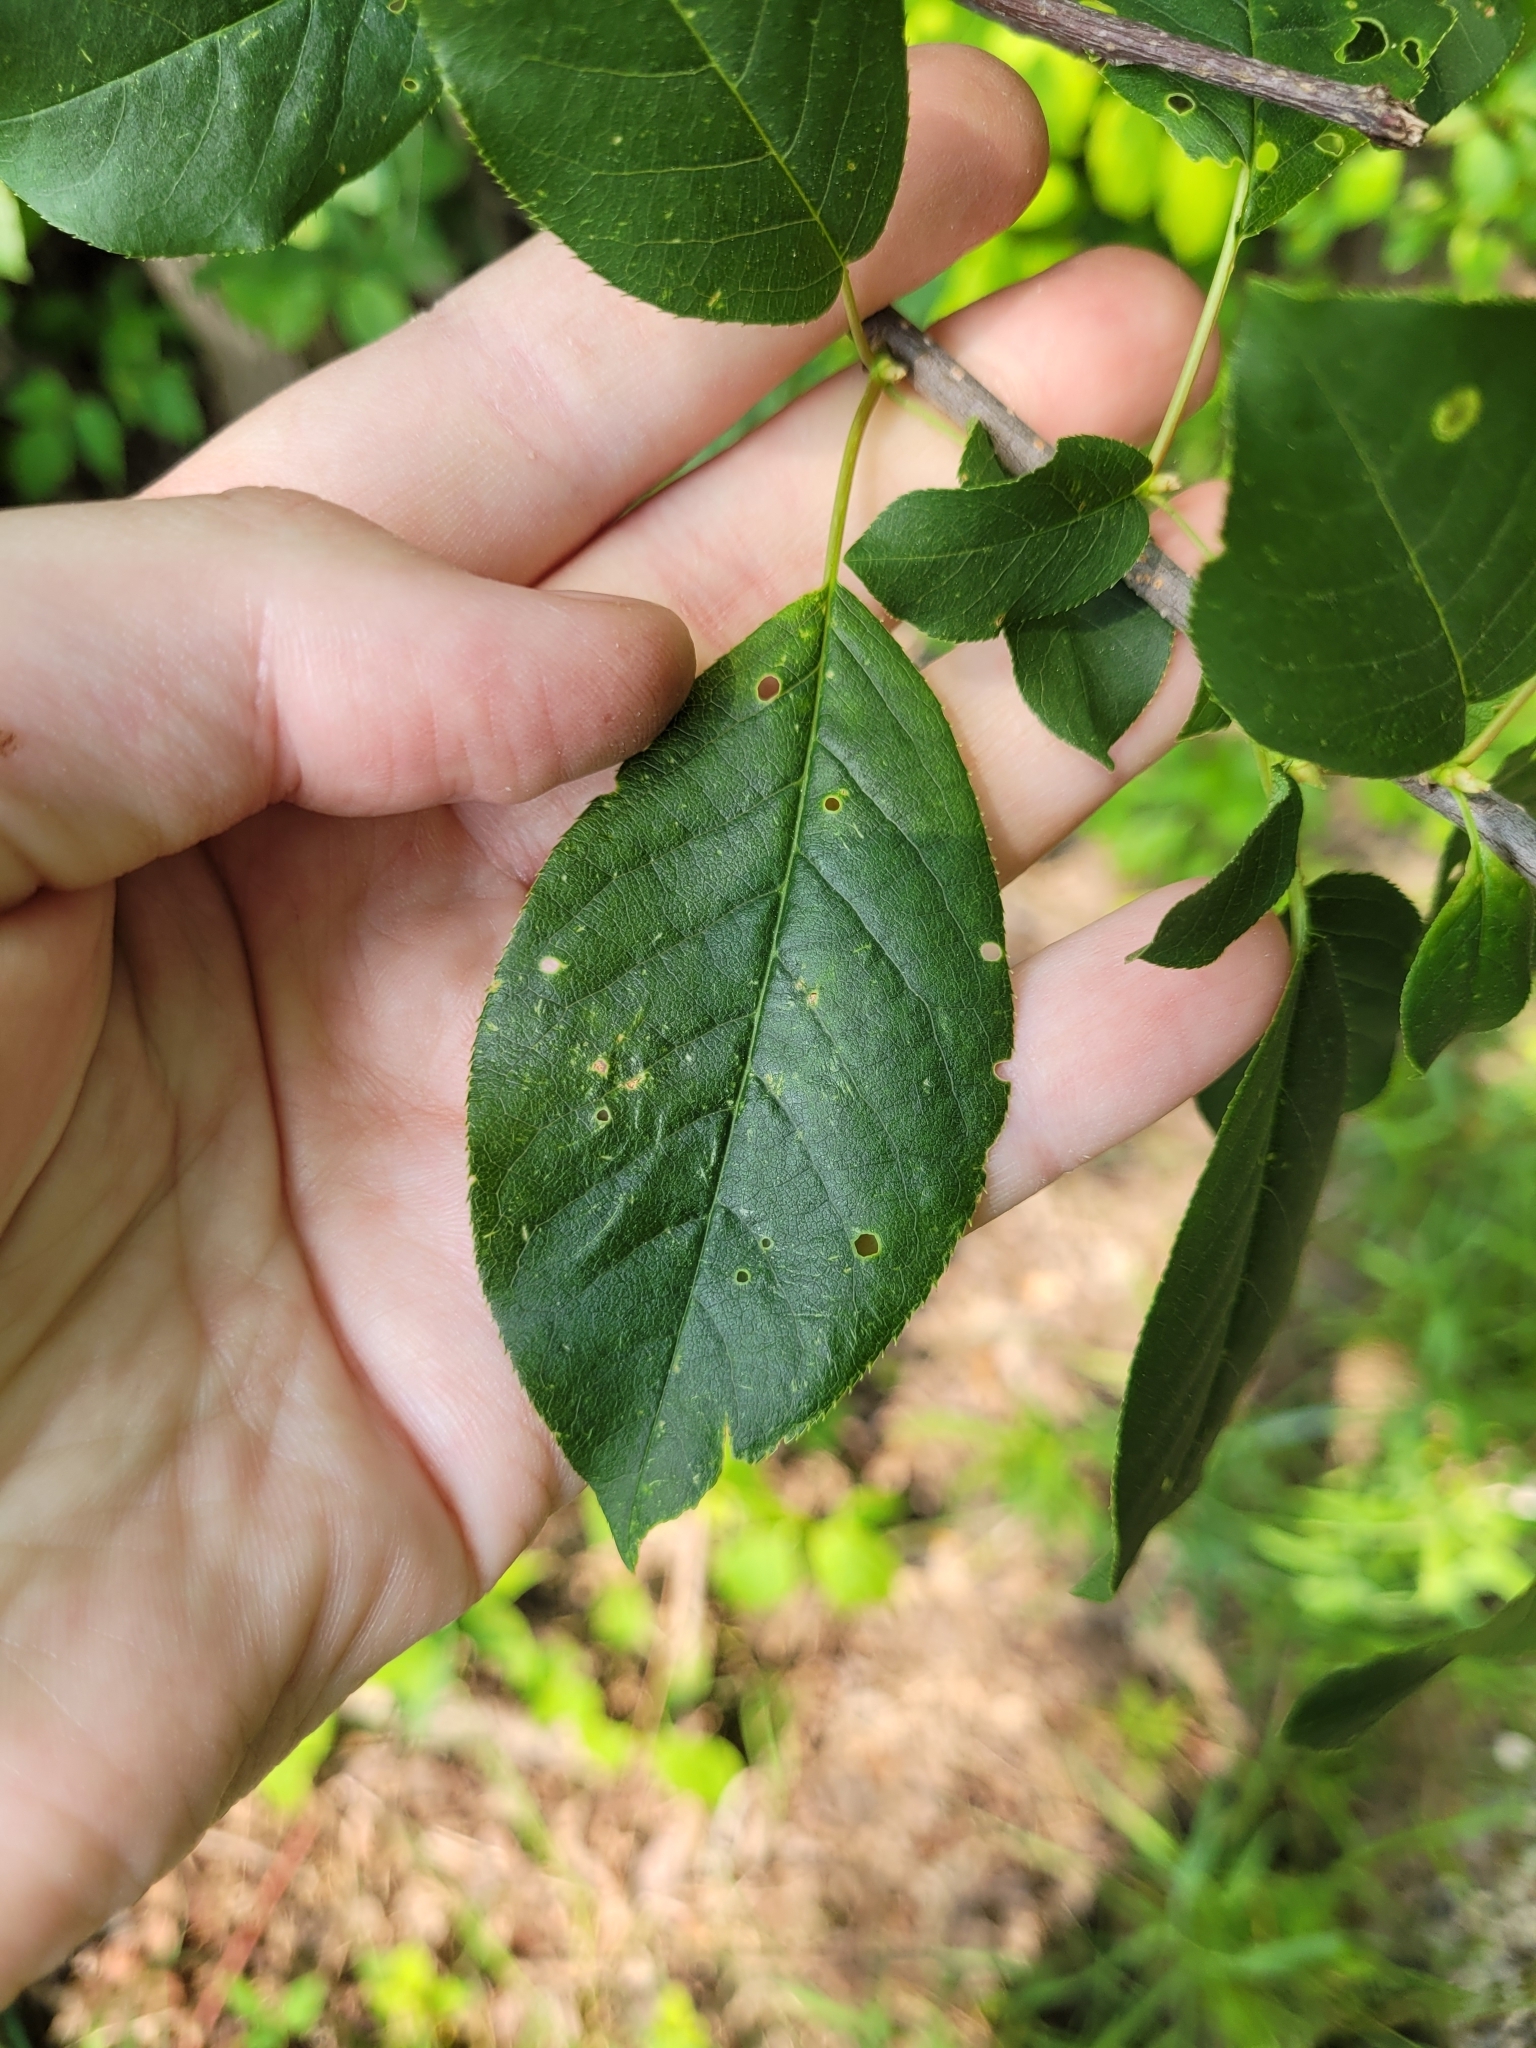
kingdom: Plantae
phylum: Tracheophyta
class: Magnoliopsida
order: Rosales
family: Rosaceae
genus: Prunus
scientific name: Prunus virginiana
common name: Chokecherry
